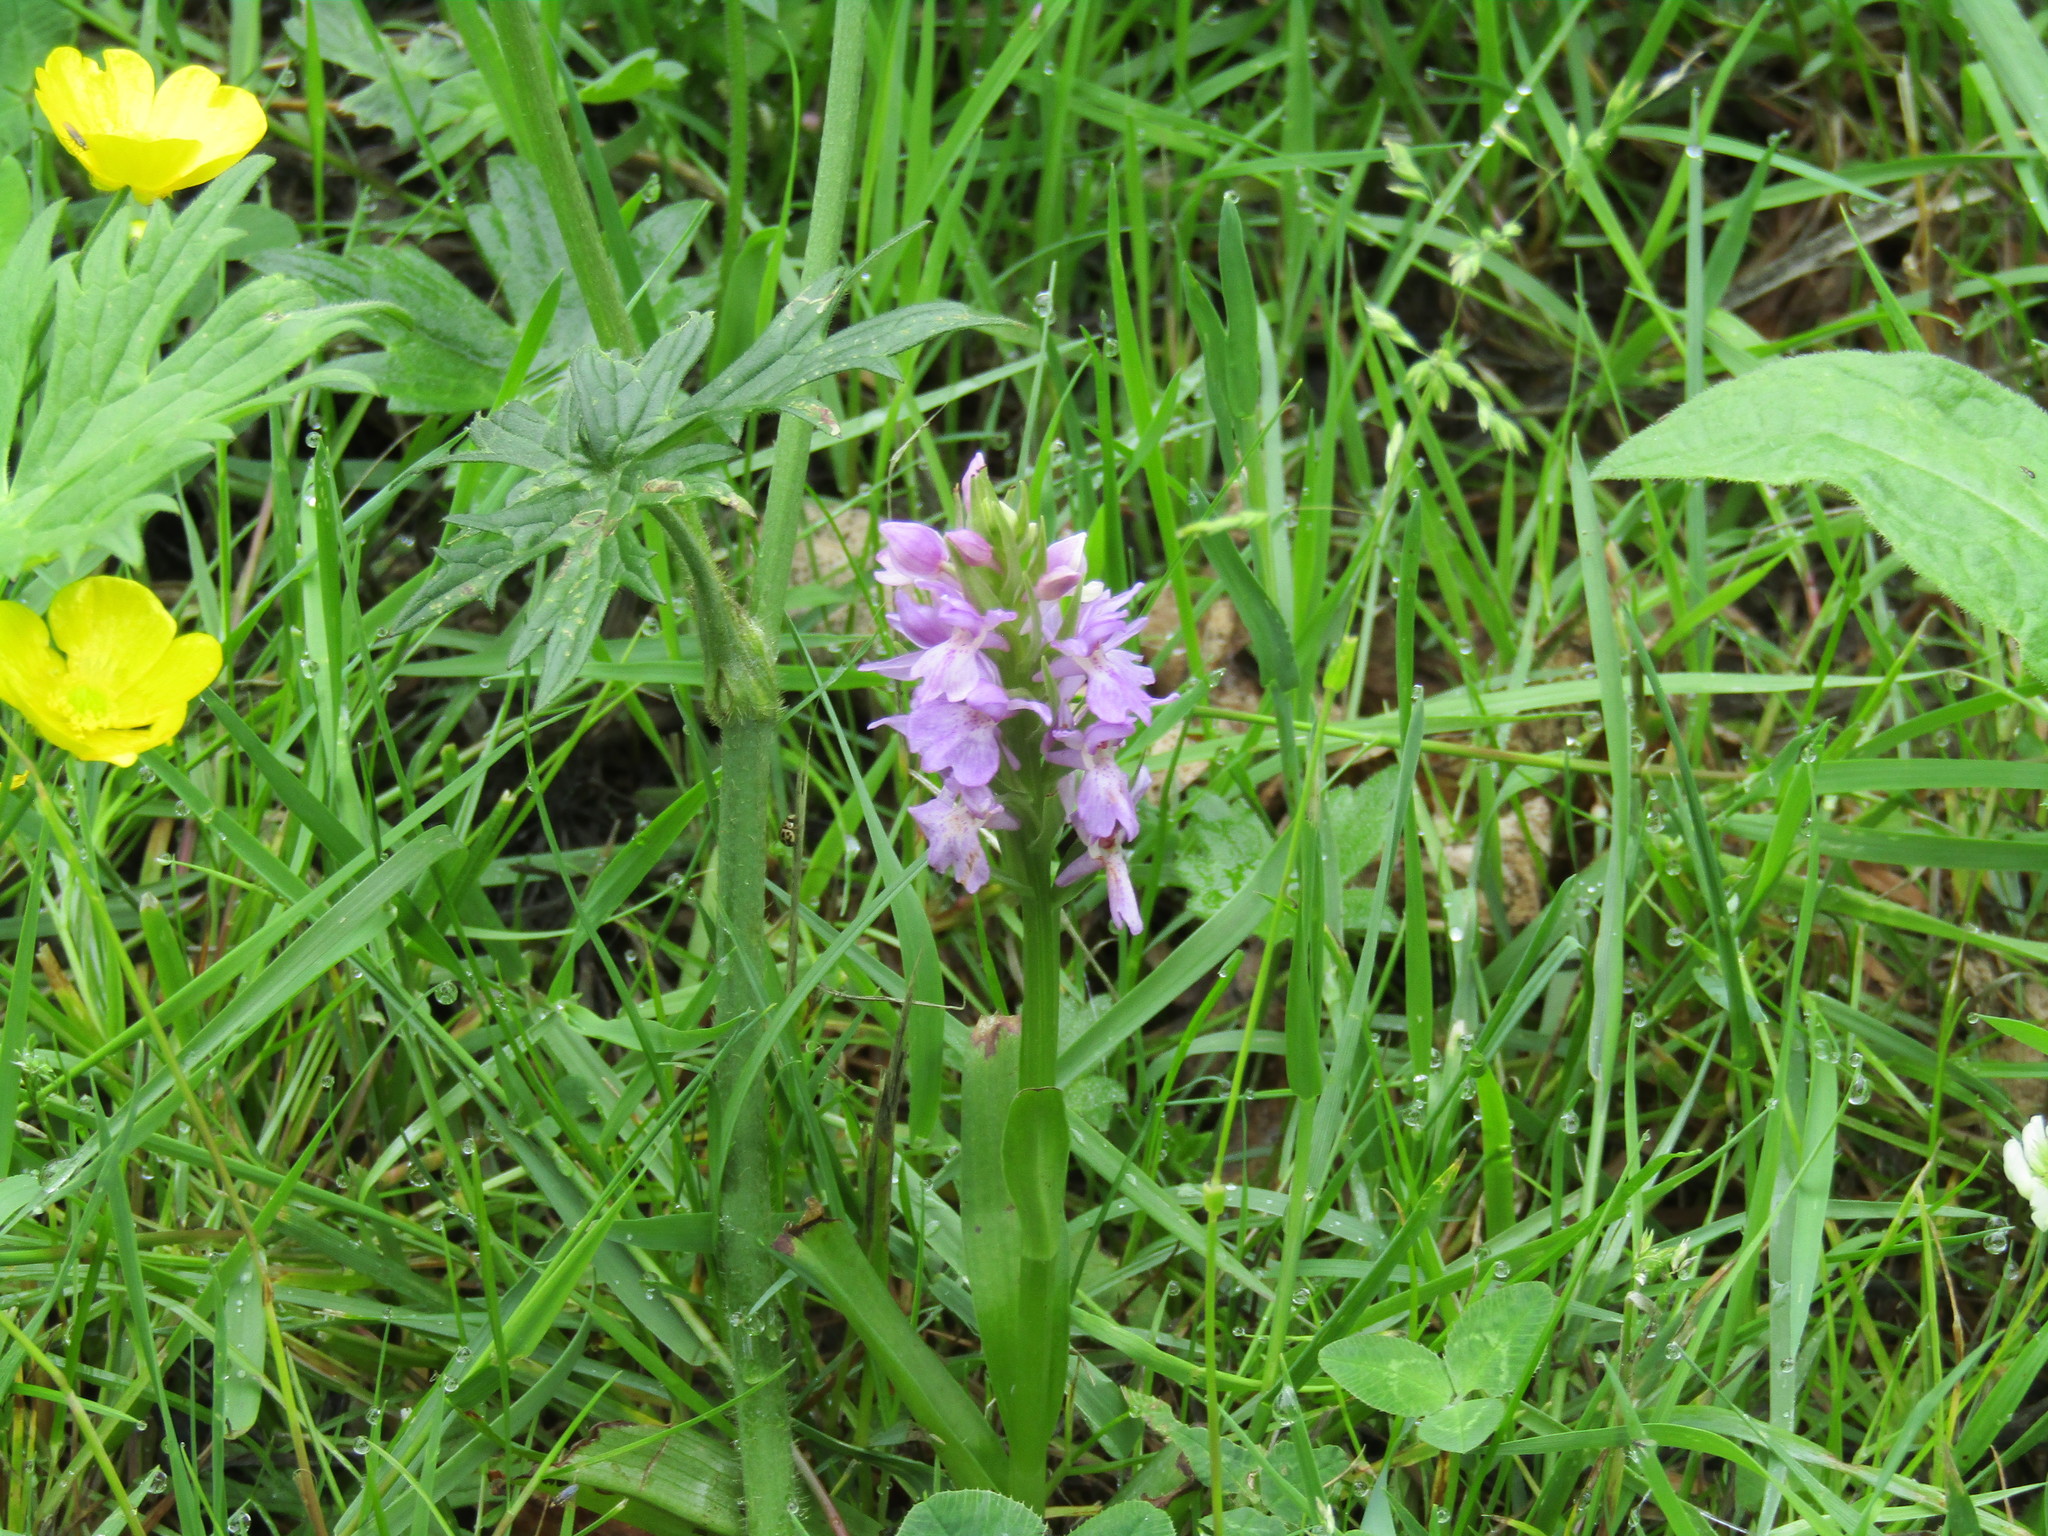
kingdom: Plantae
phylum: Tracheophyta
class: Liliopsida
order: Asparagales
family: Orchidaceae
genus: Dactylorhiza
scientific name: Dactylorhiza majalis
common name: Marsh orchid
